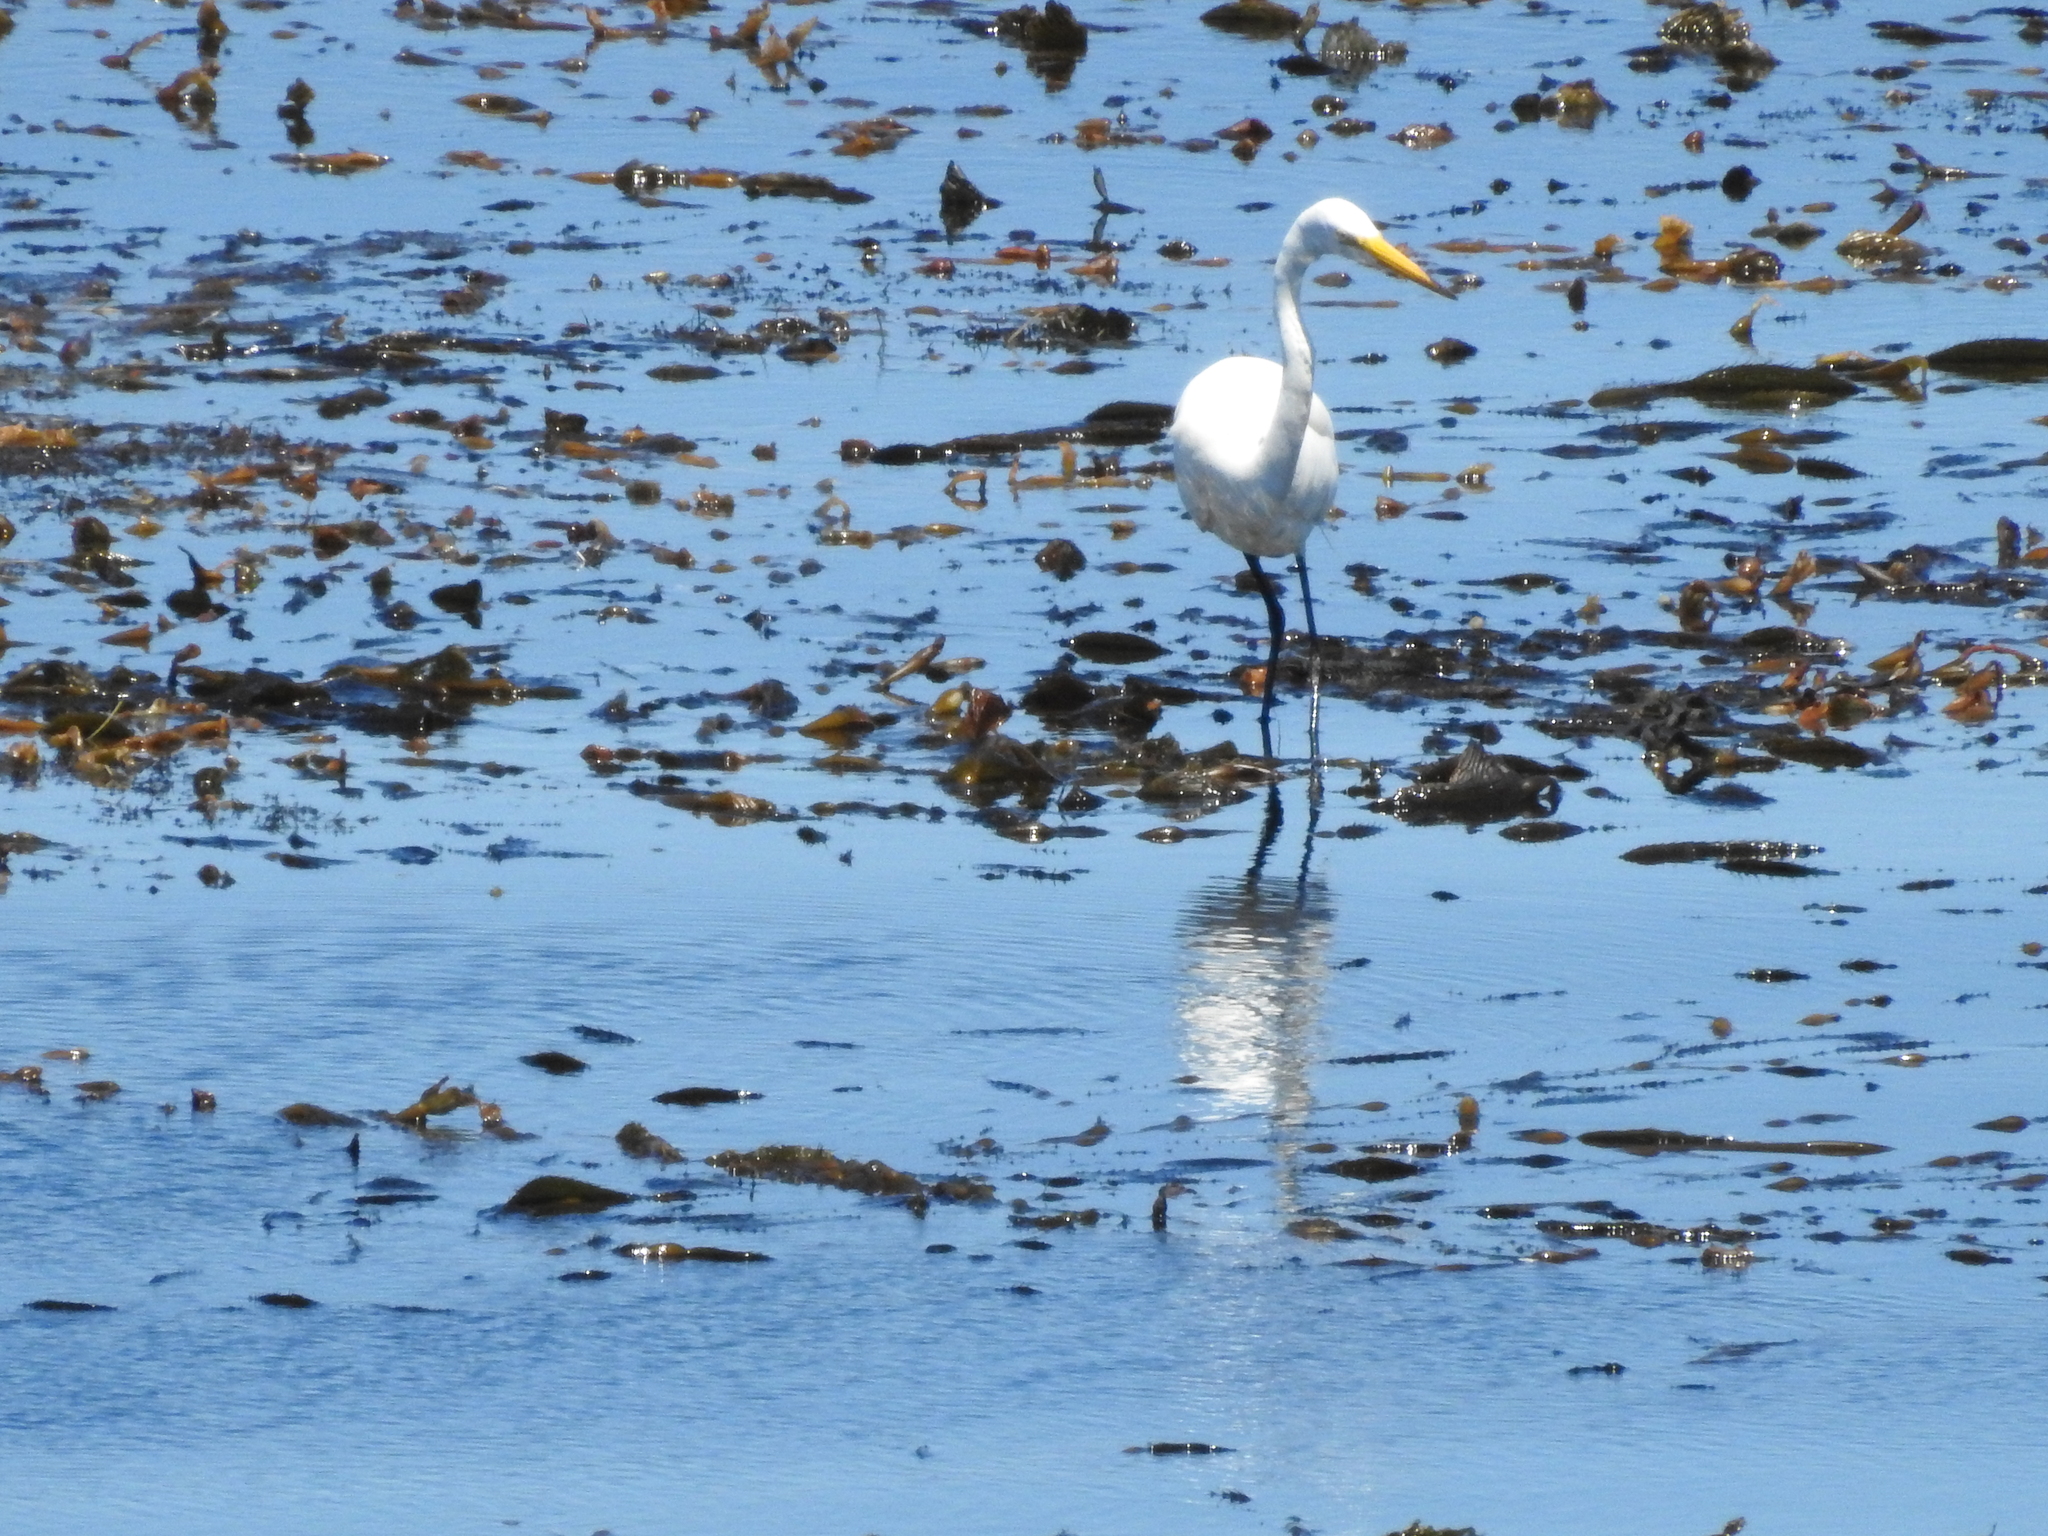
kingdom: Animalia
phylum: Chordata
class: Aves
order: Pelecaniformes
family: Ardeidae
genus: Ardea
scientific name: Ardea alba
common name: Great egret
